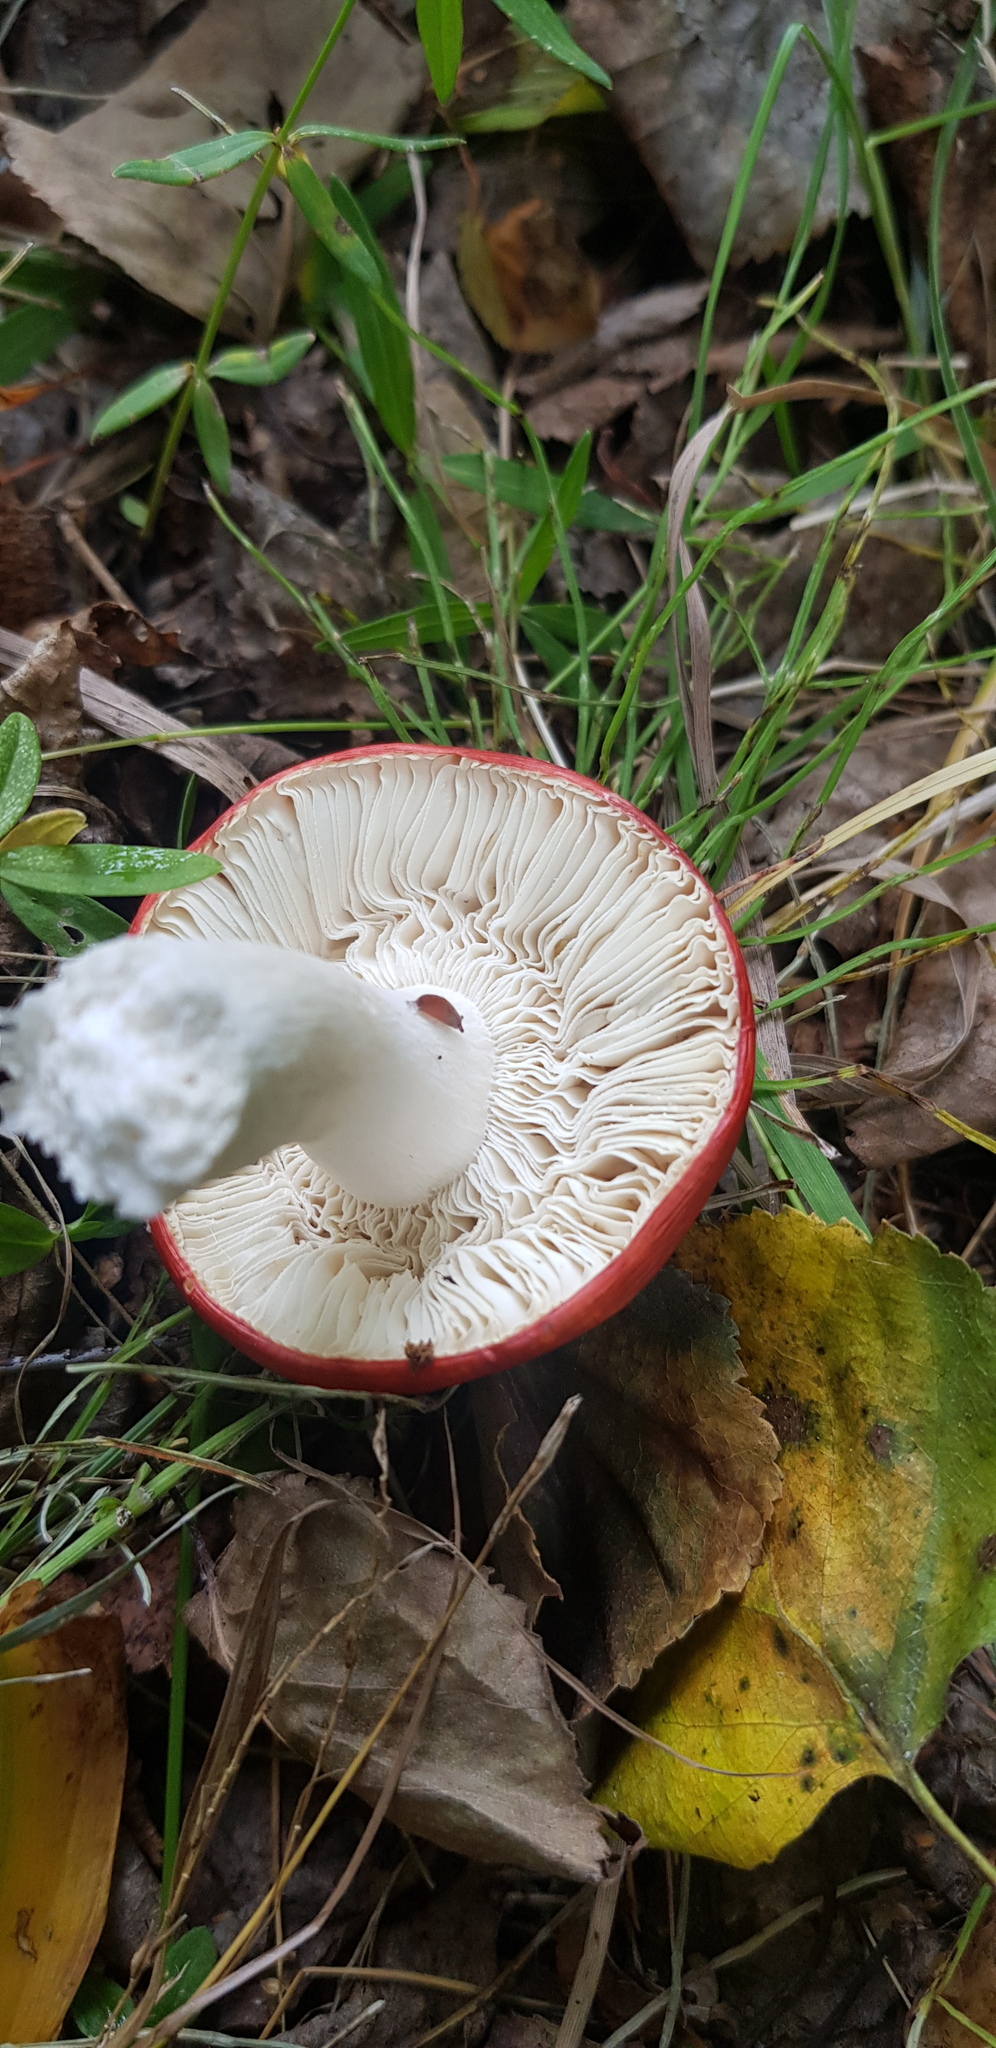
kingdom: Fungi
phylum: Basidiomycota
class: Agaricomycetes
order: Russulales
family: Russulaceae
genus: Russula
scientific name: Russula
